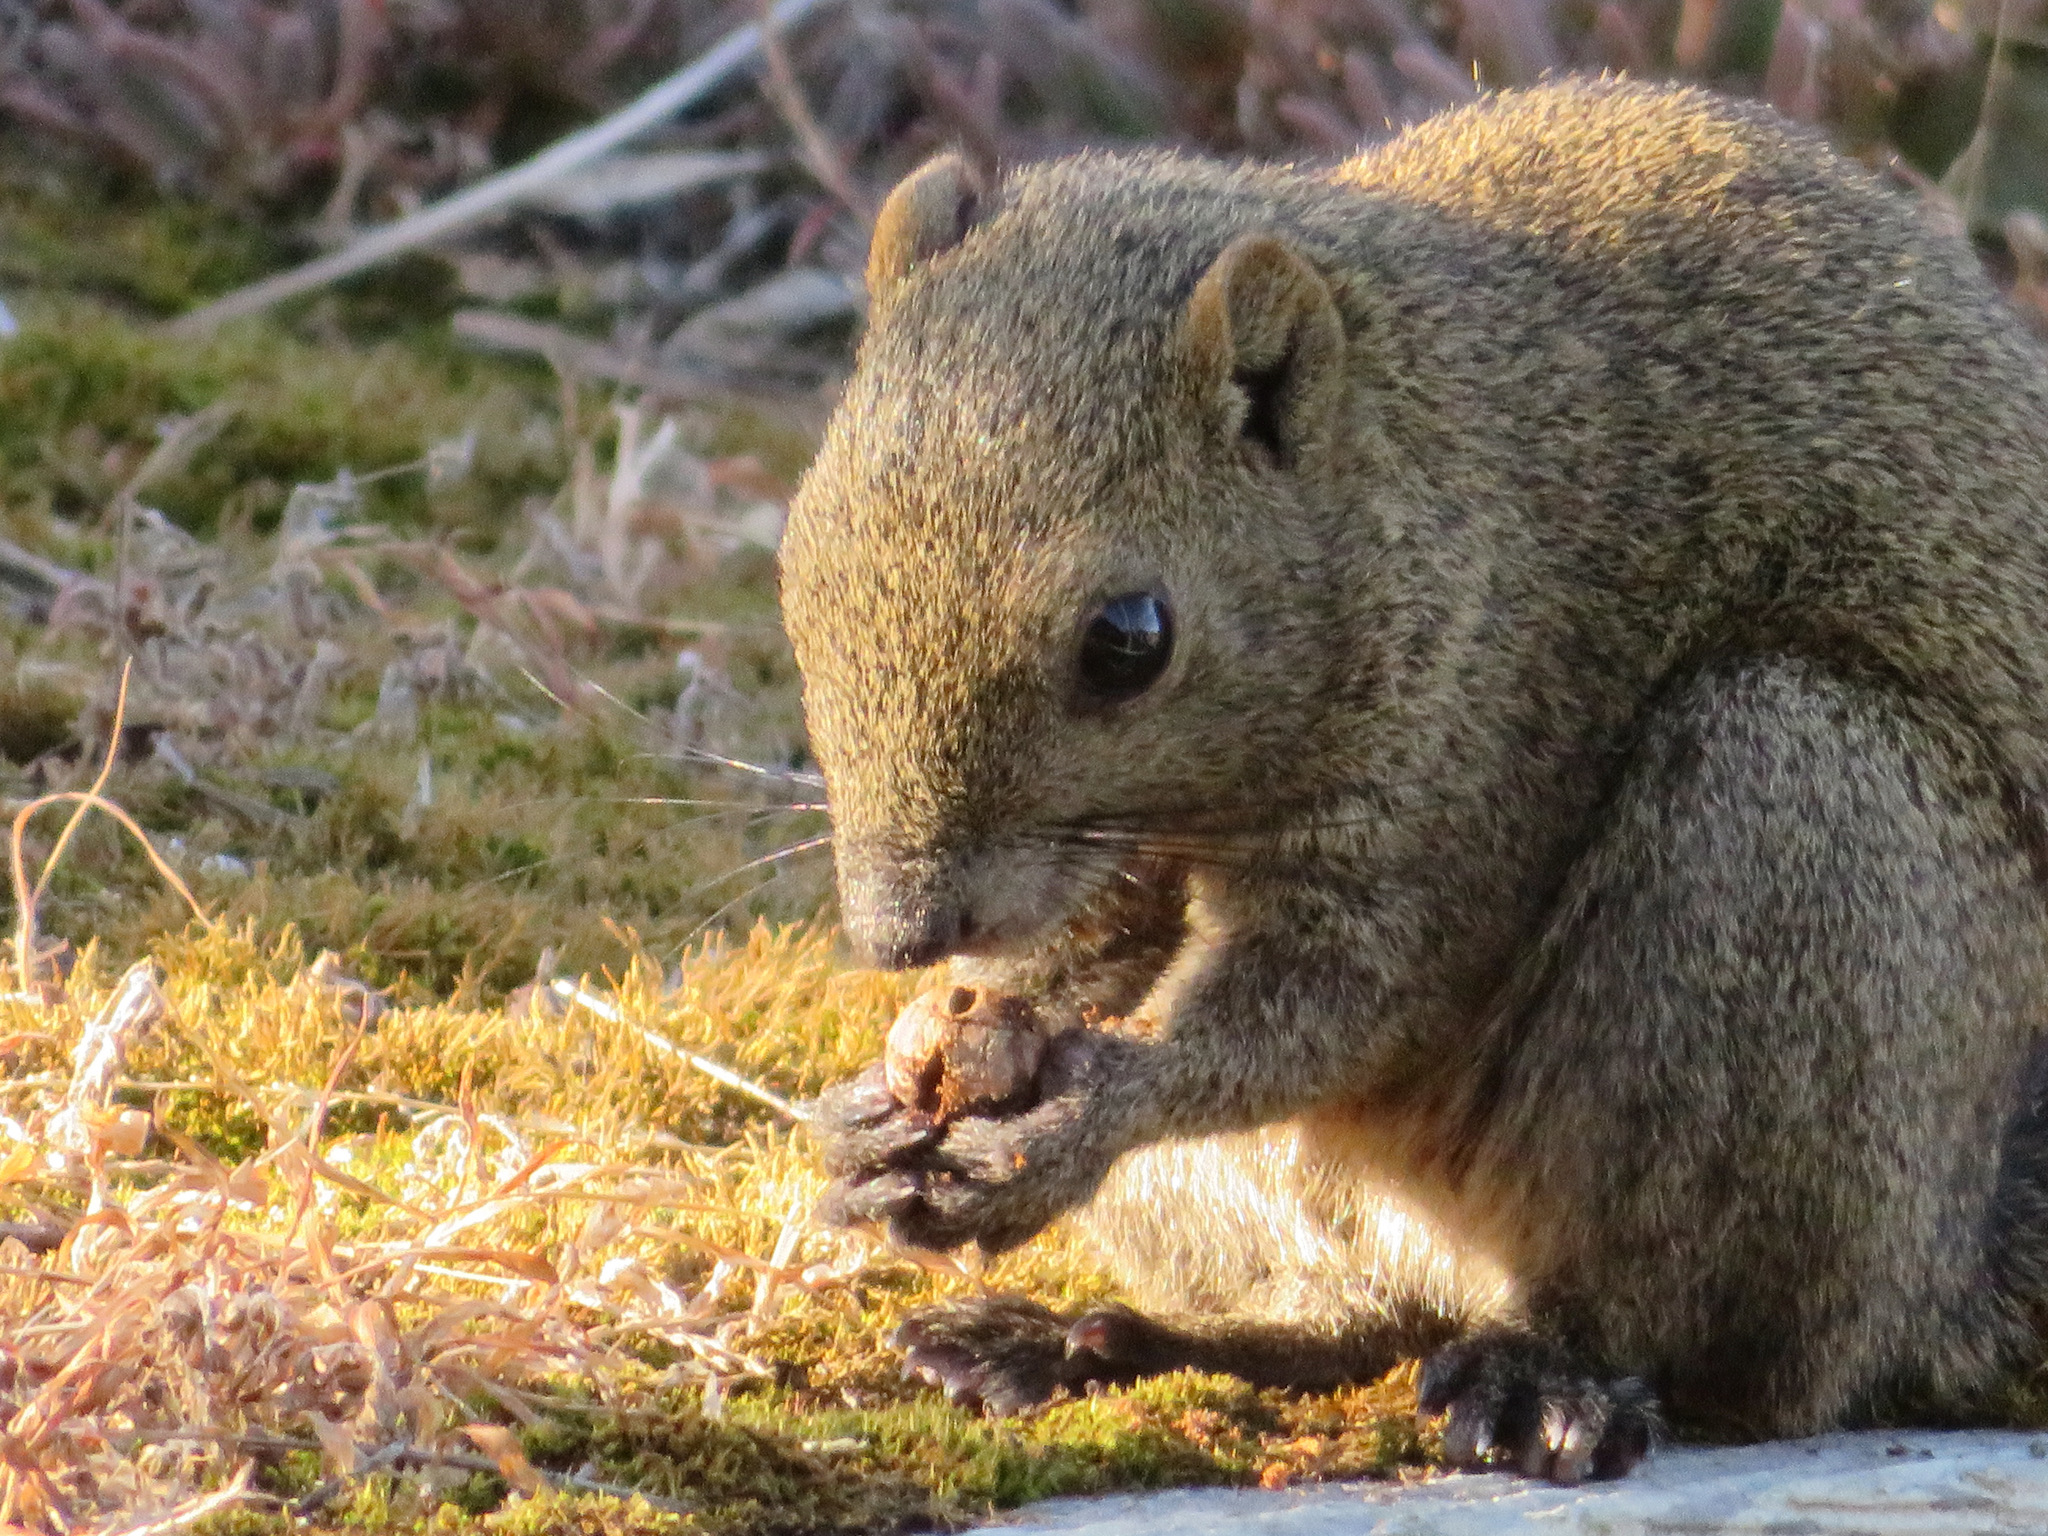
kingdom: Animalia
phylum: Chordata
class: Mammalia
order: Rodentia
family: Sciuridae
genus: Callosciurus
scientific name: Callosciurus erythraeus
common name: Pallas's squirrel
